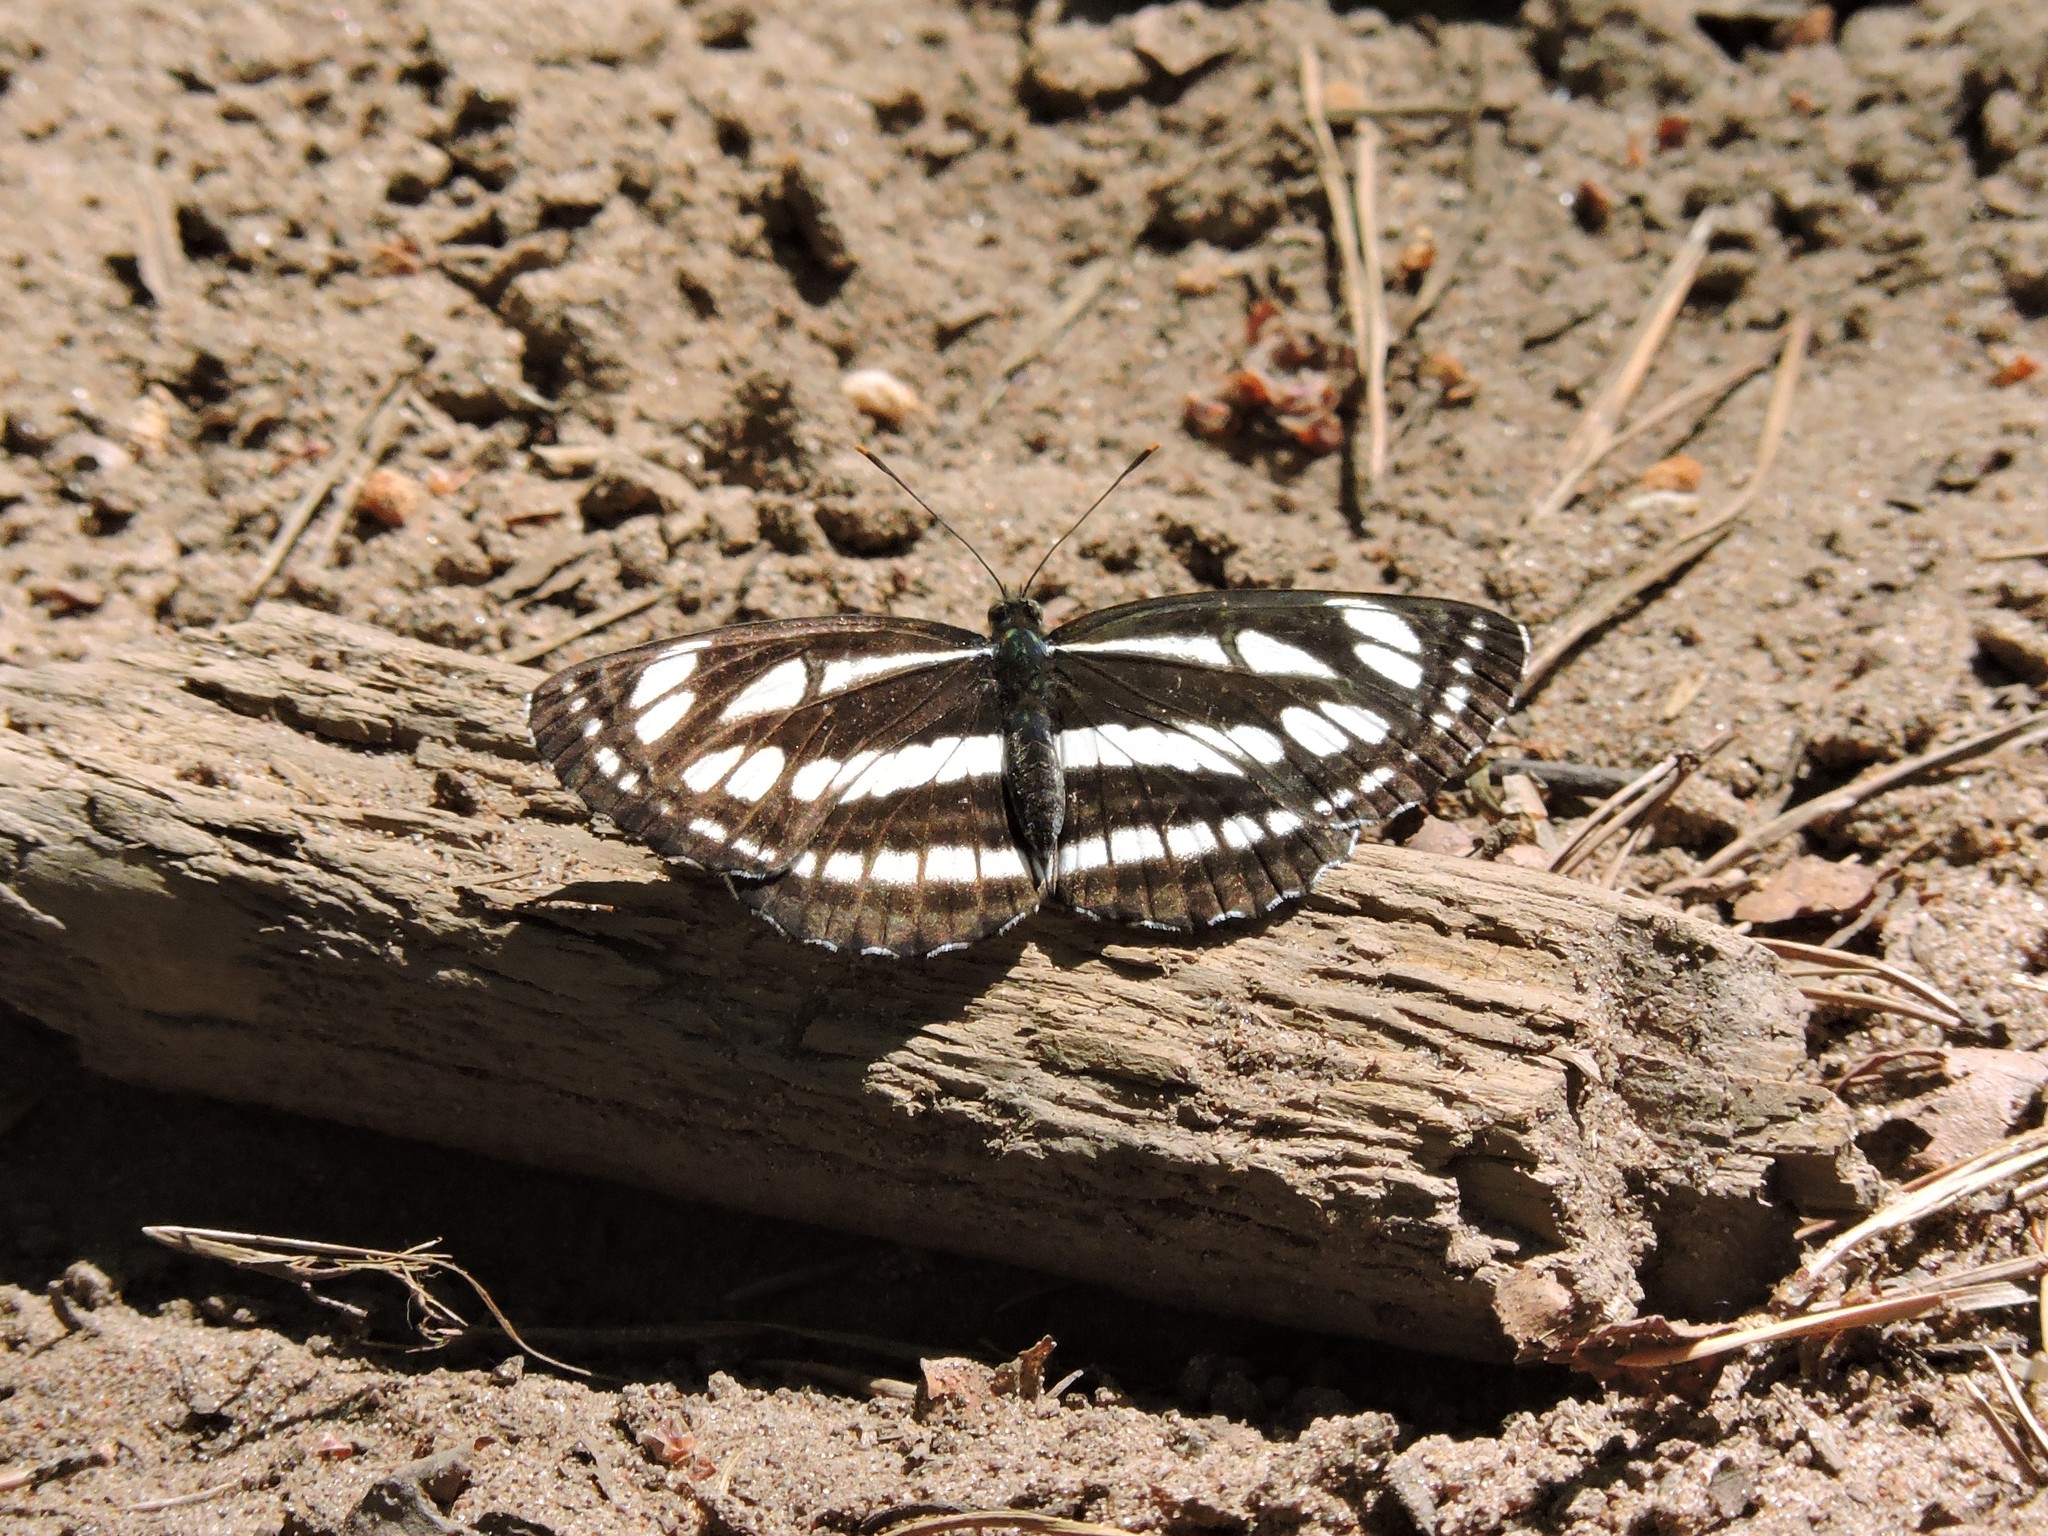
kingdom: Animalia
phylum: Arthropoda
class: Insecta
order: Lepidoptera
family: Nymphalidae
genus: Neptis
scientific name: Neptis sappho
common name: Common glider
